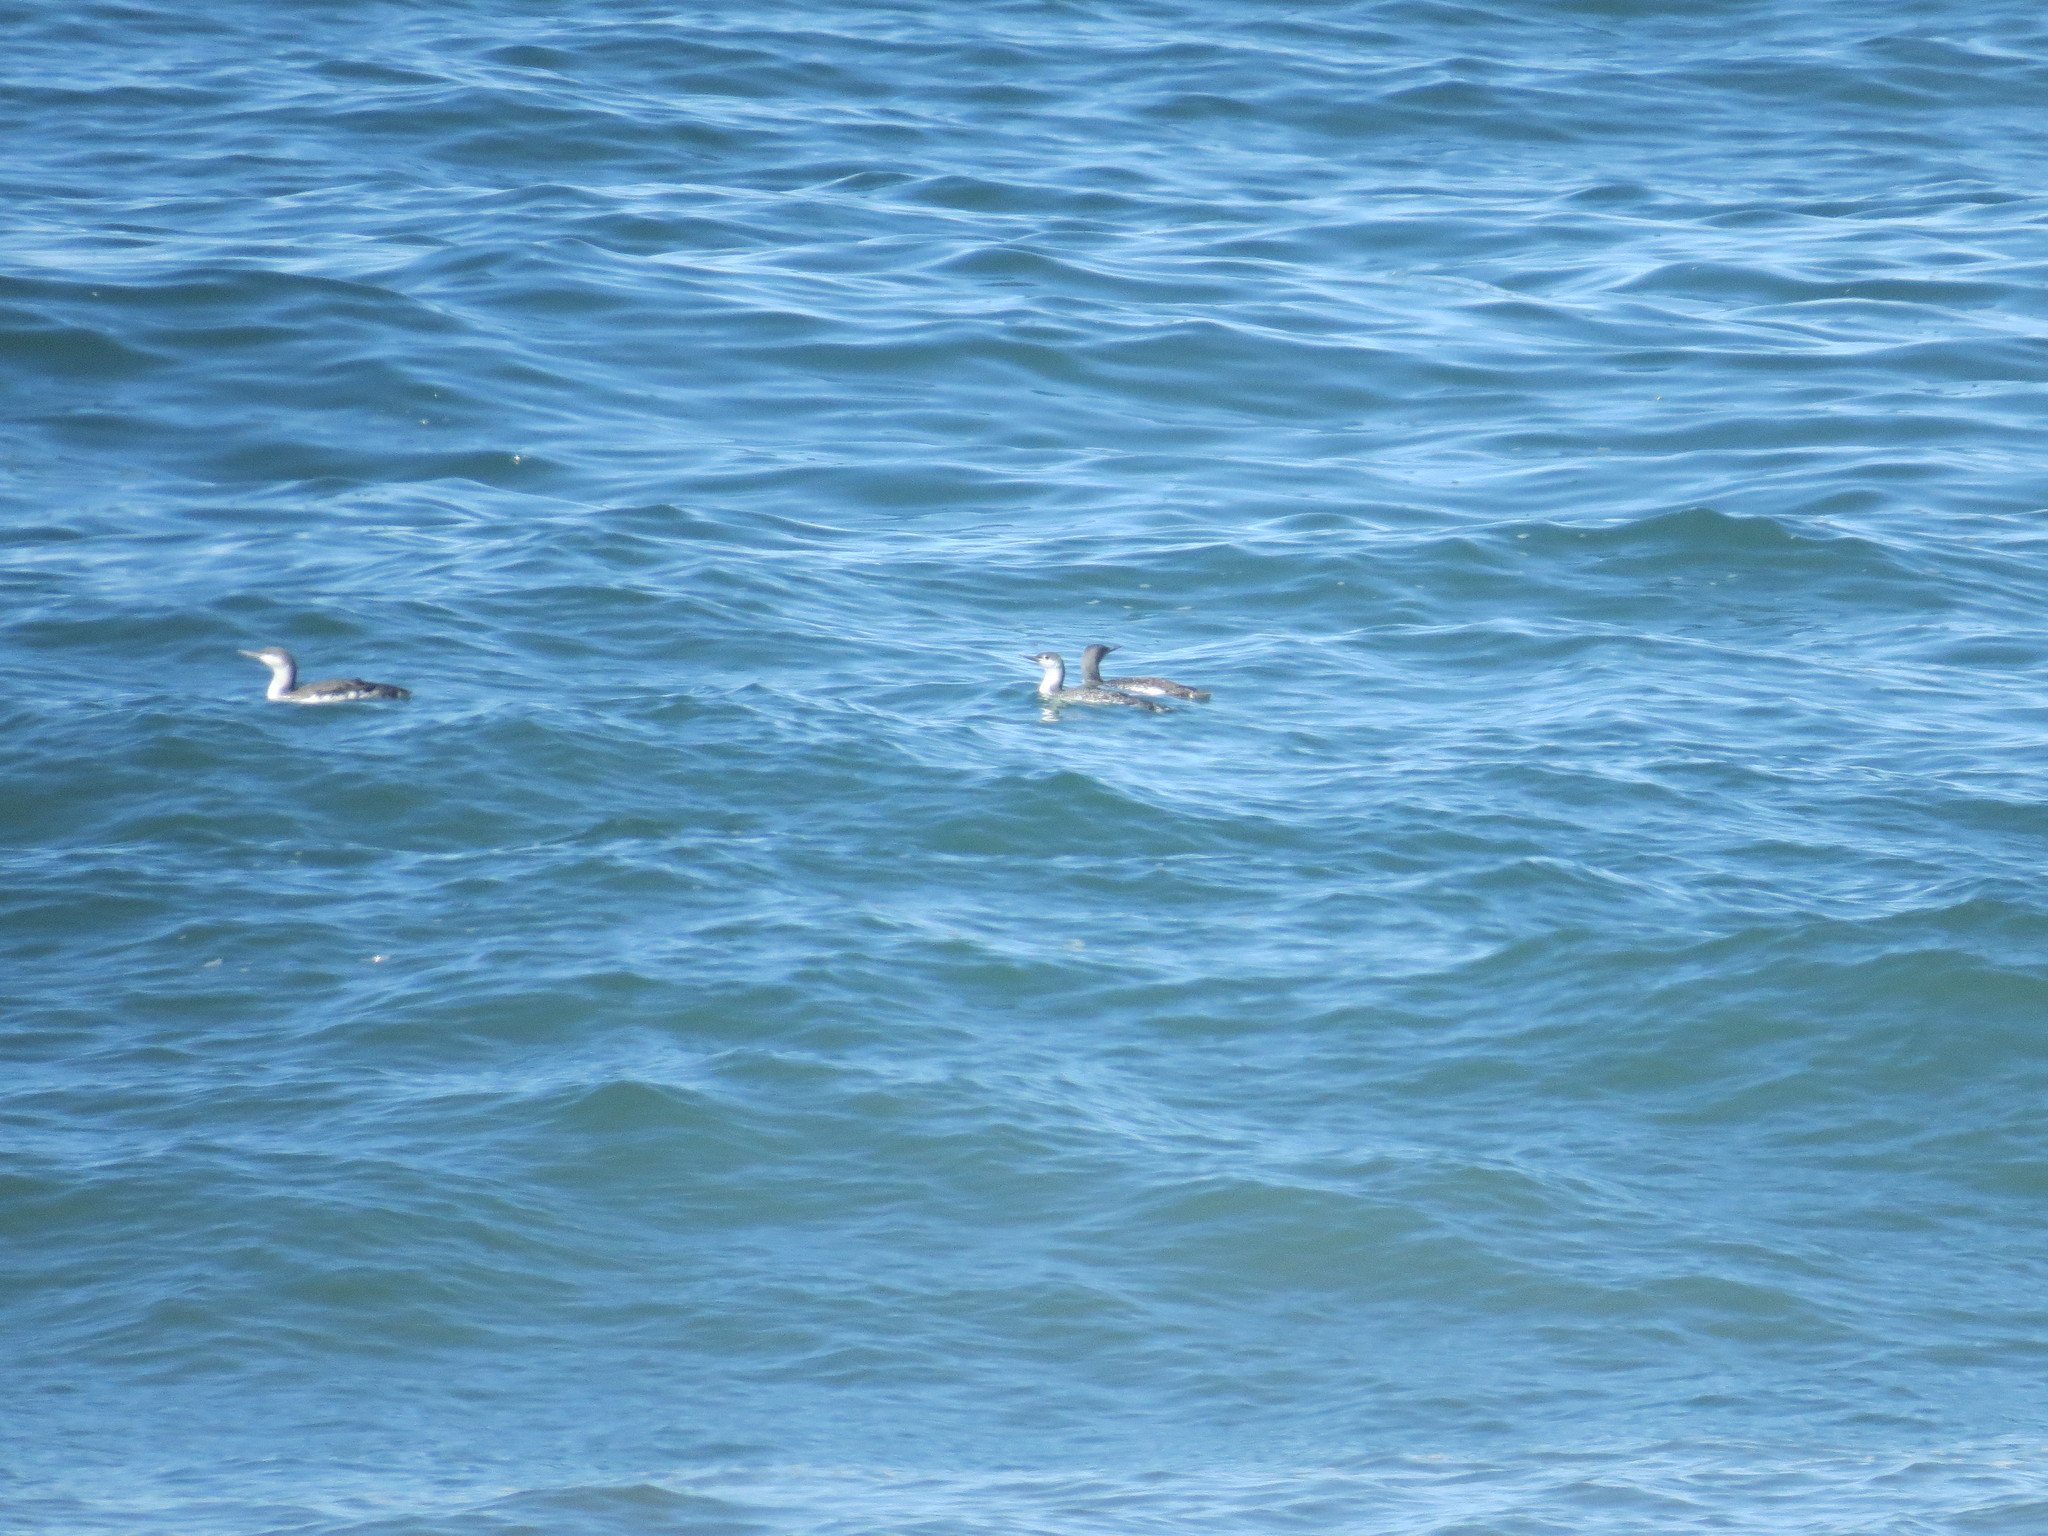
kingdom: Animalia
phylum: Chordata
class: Aves
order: Gaviiformes
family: Gaviidae
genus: Gavia
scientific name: Gavia stellata
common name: Red-throated loon
